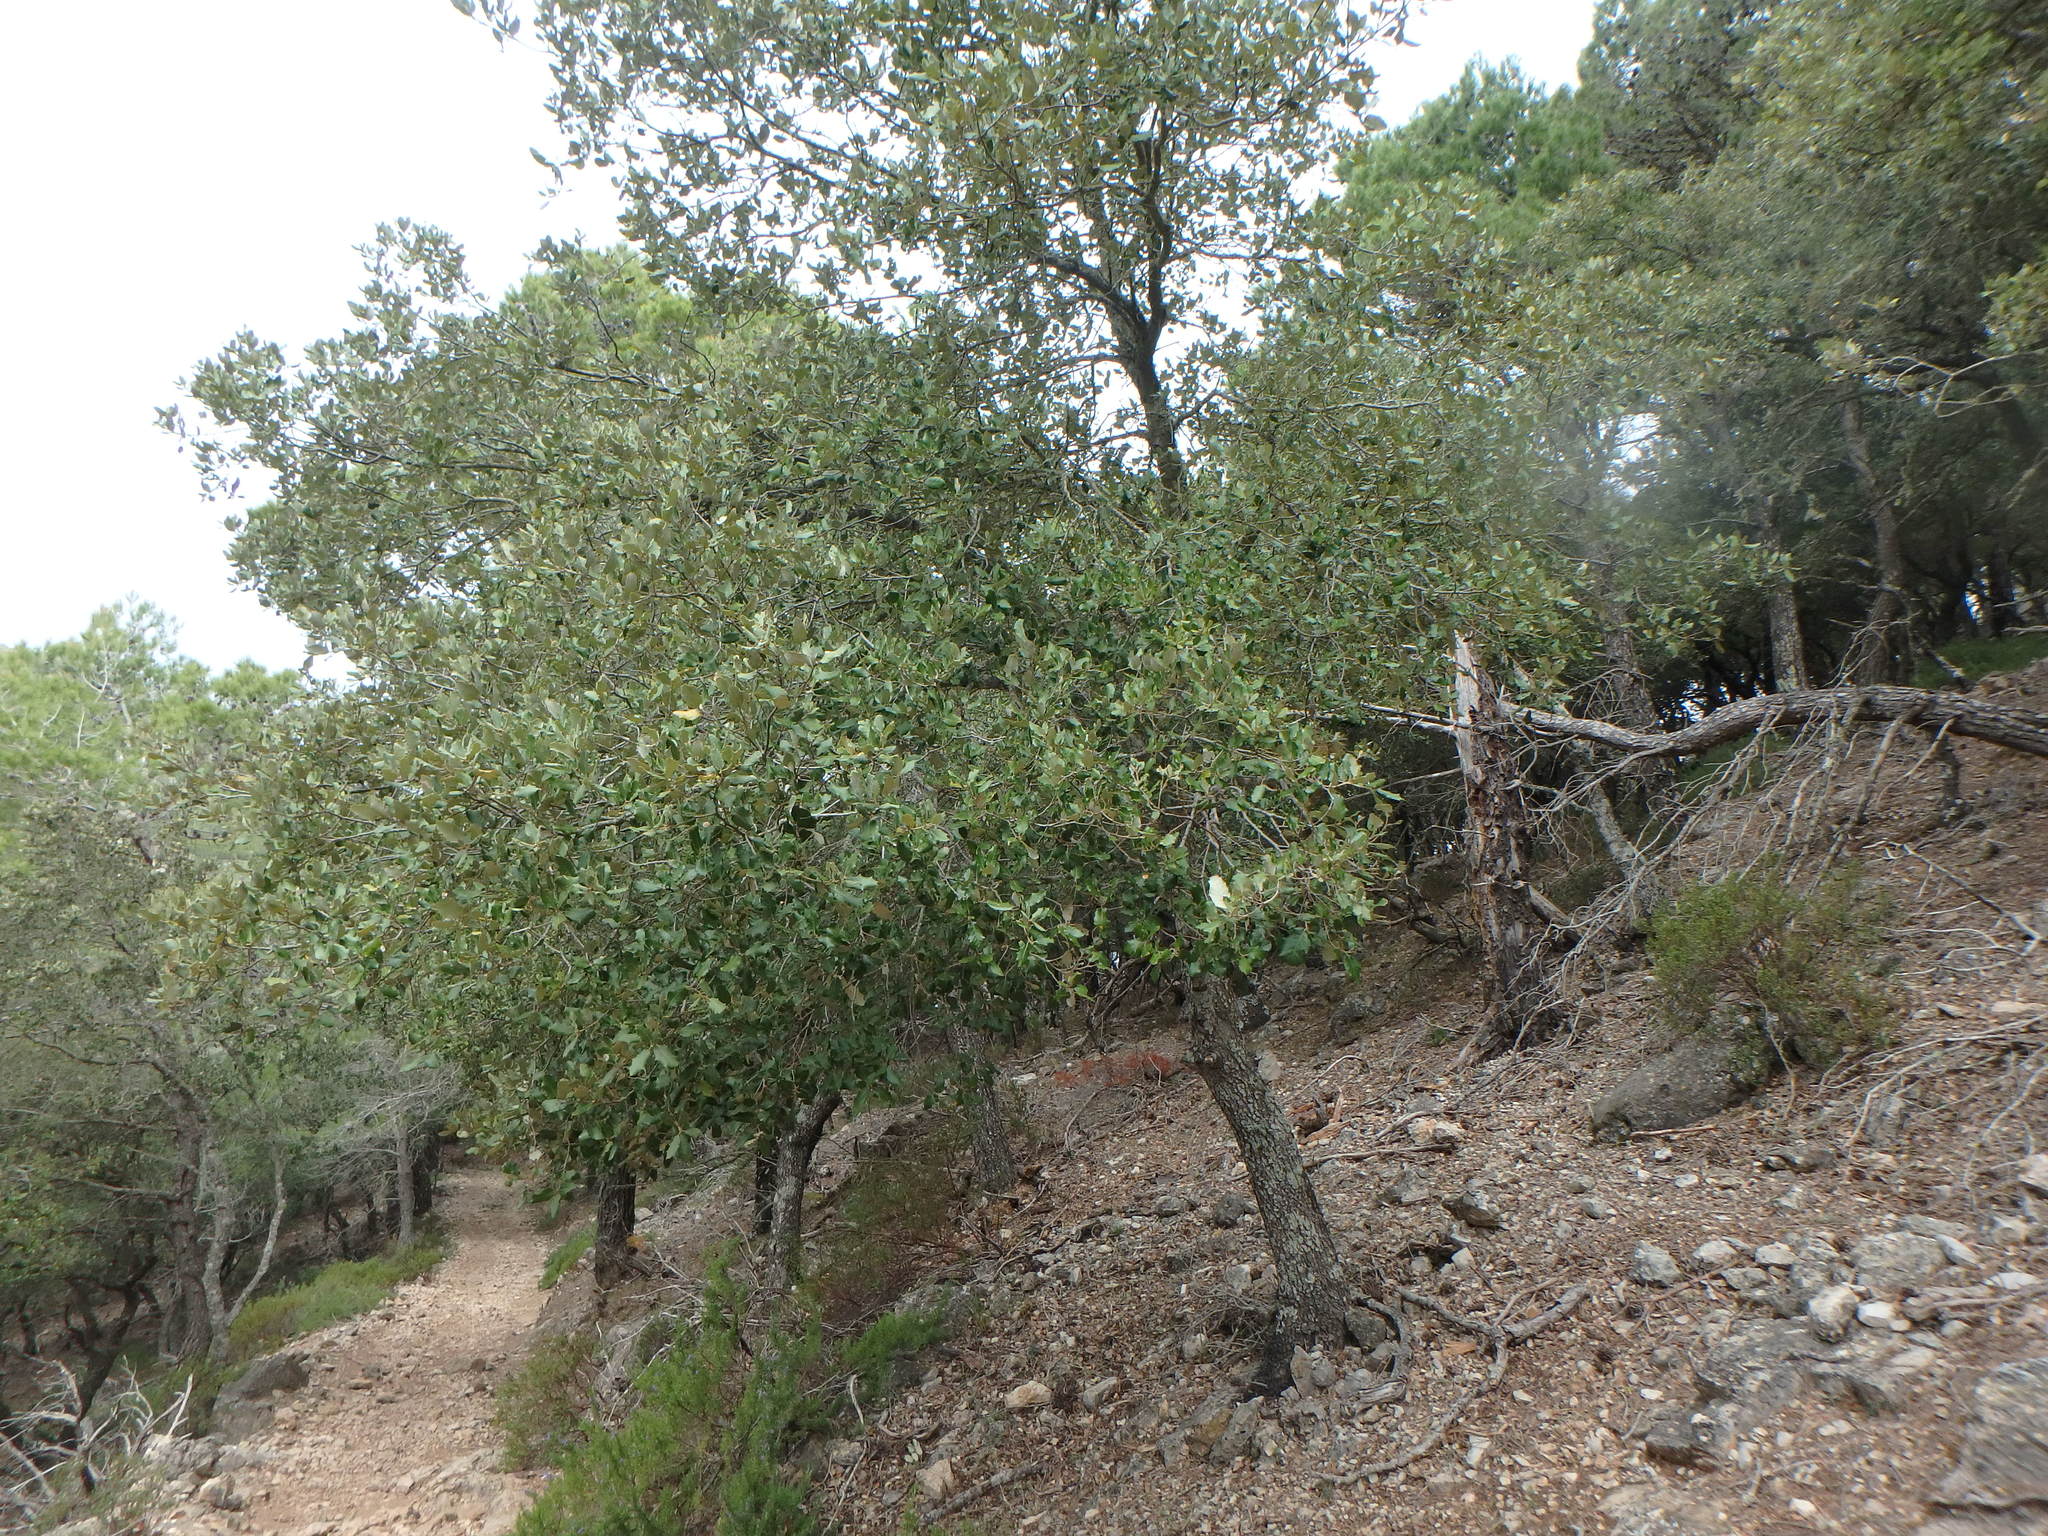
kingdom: Plantae
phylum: Tracheophyta
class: Magnoliopsida
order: Fagales
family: Fagaceae
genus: Quercus
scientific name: Quercus ilex
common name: Evergreen oak
